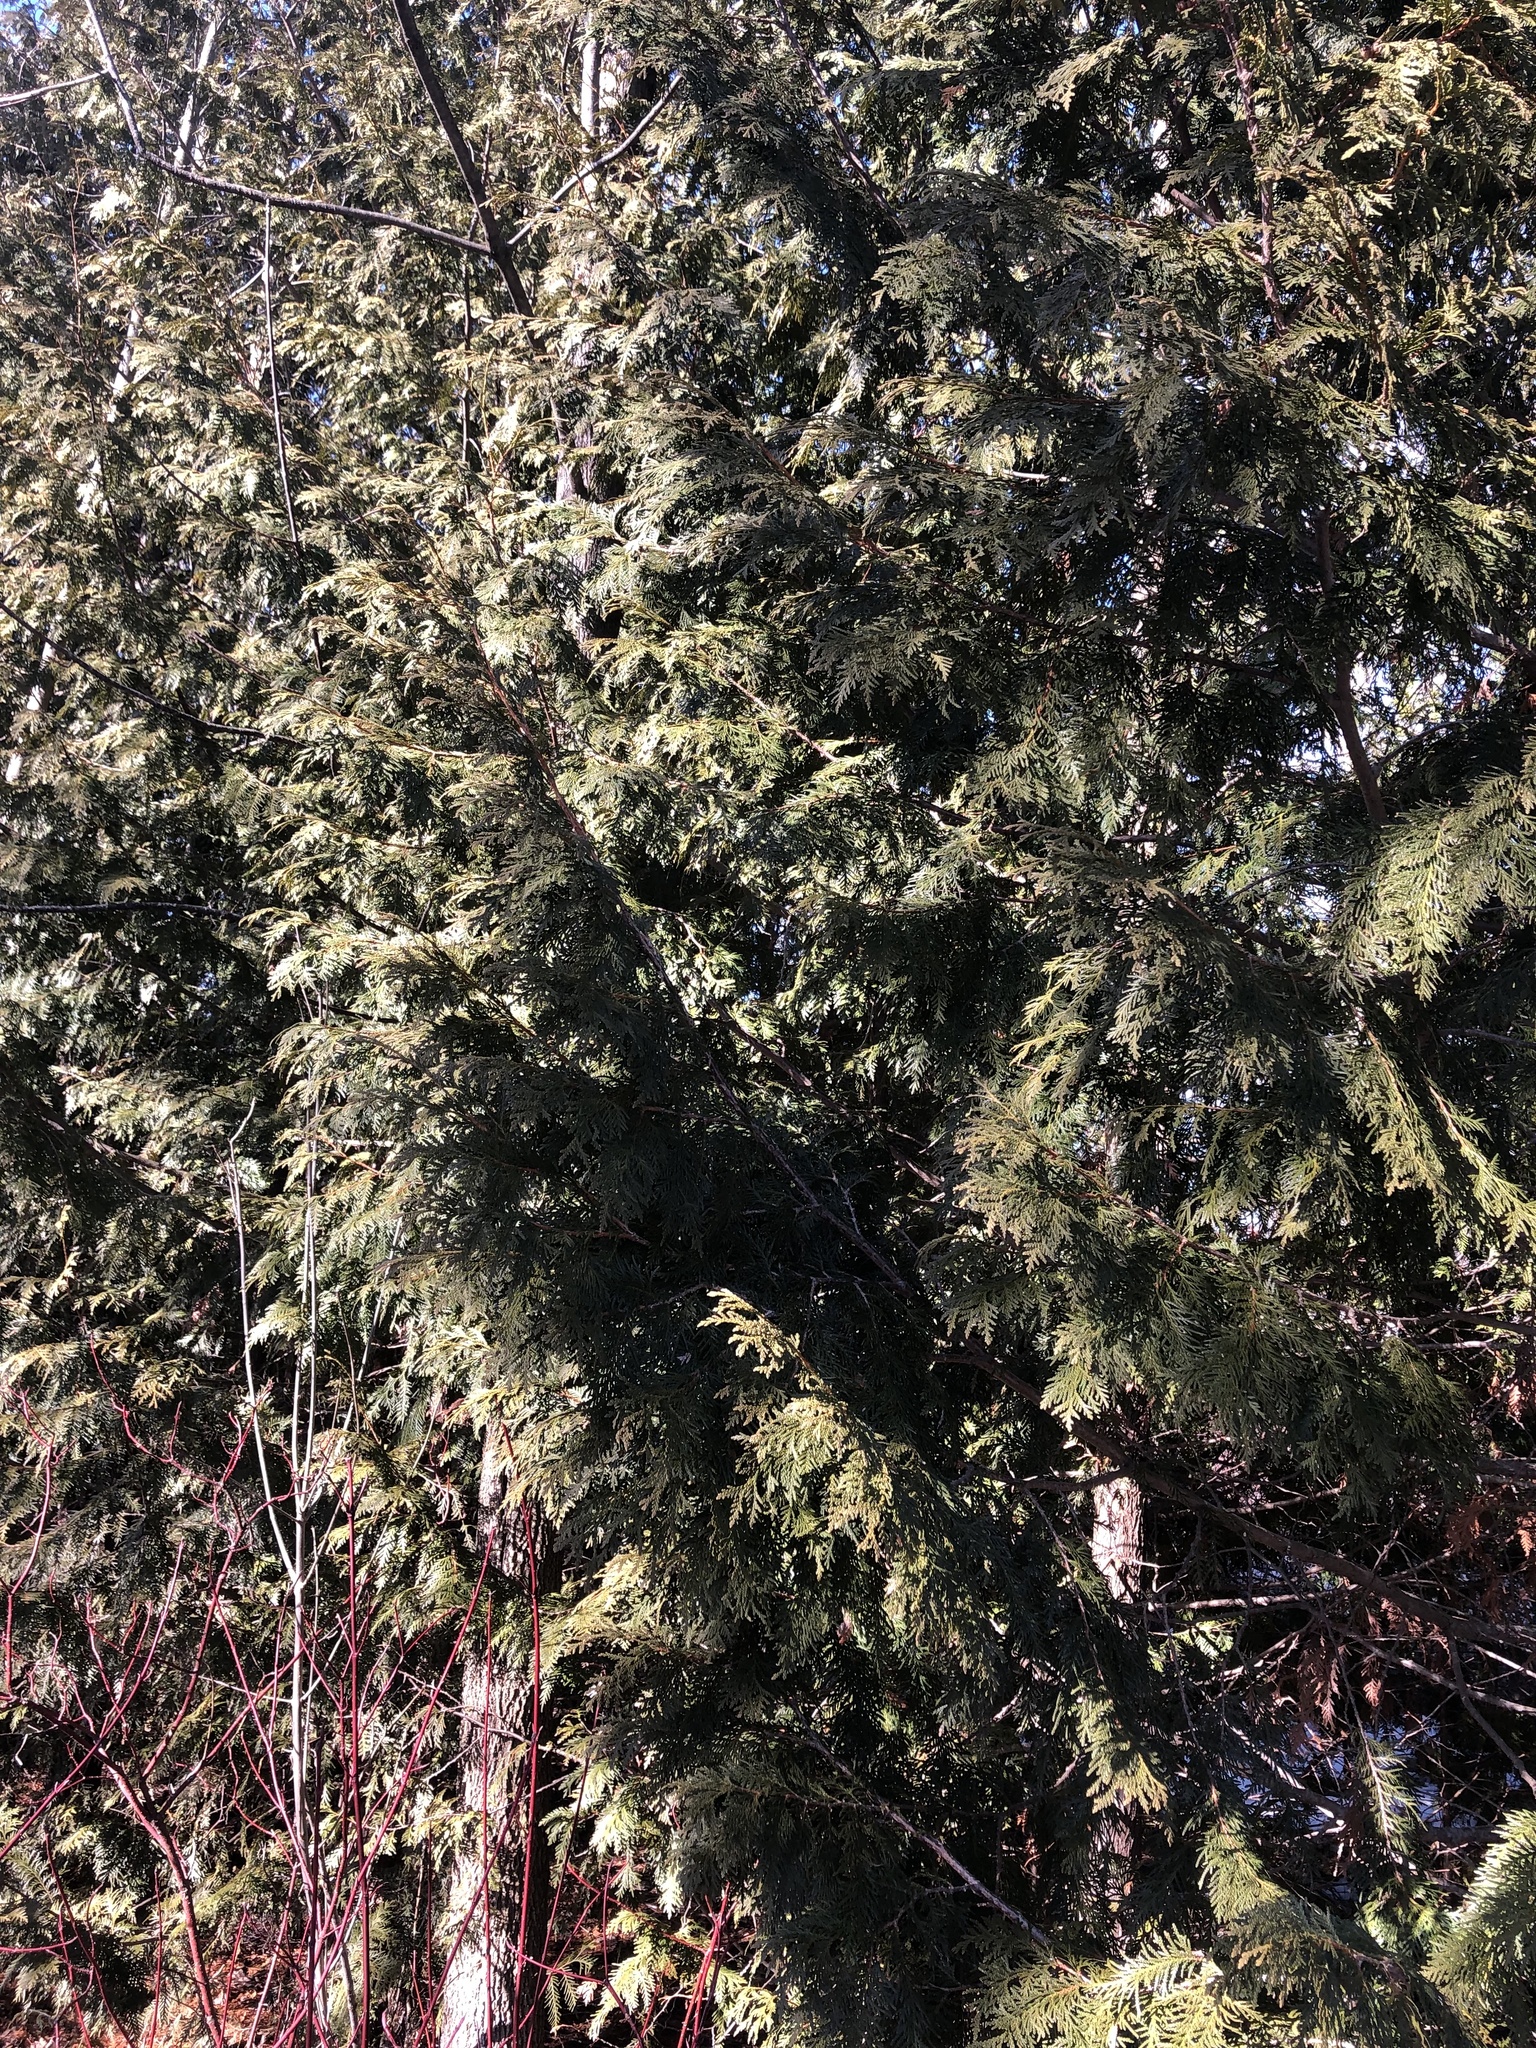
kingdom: Plantae
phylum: Tracheophyta
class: Pinopsida
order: Pinales
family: Cupressaceae
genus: Thuja
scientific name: Thuja occidentalis
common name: Northern white-cedar
